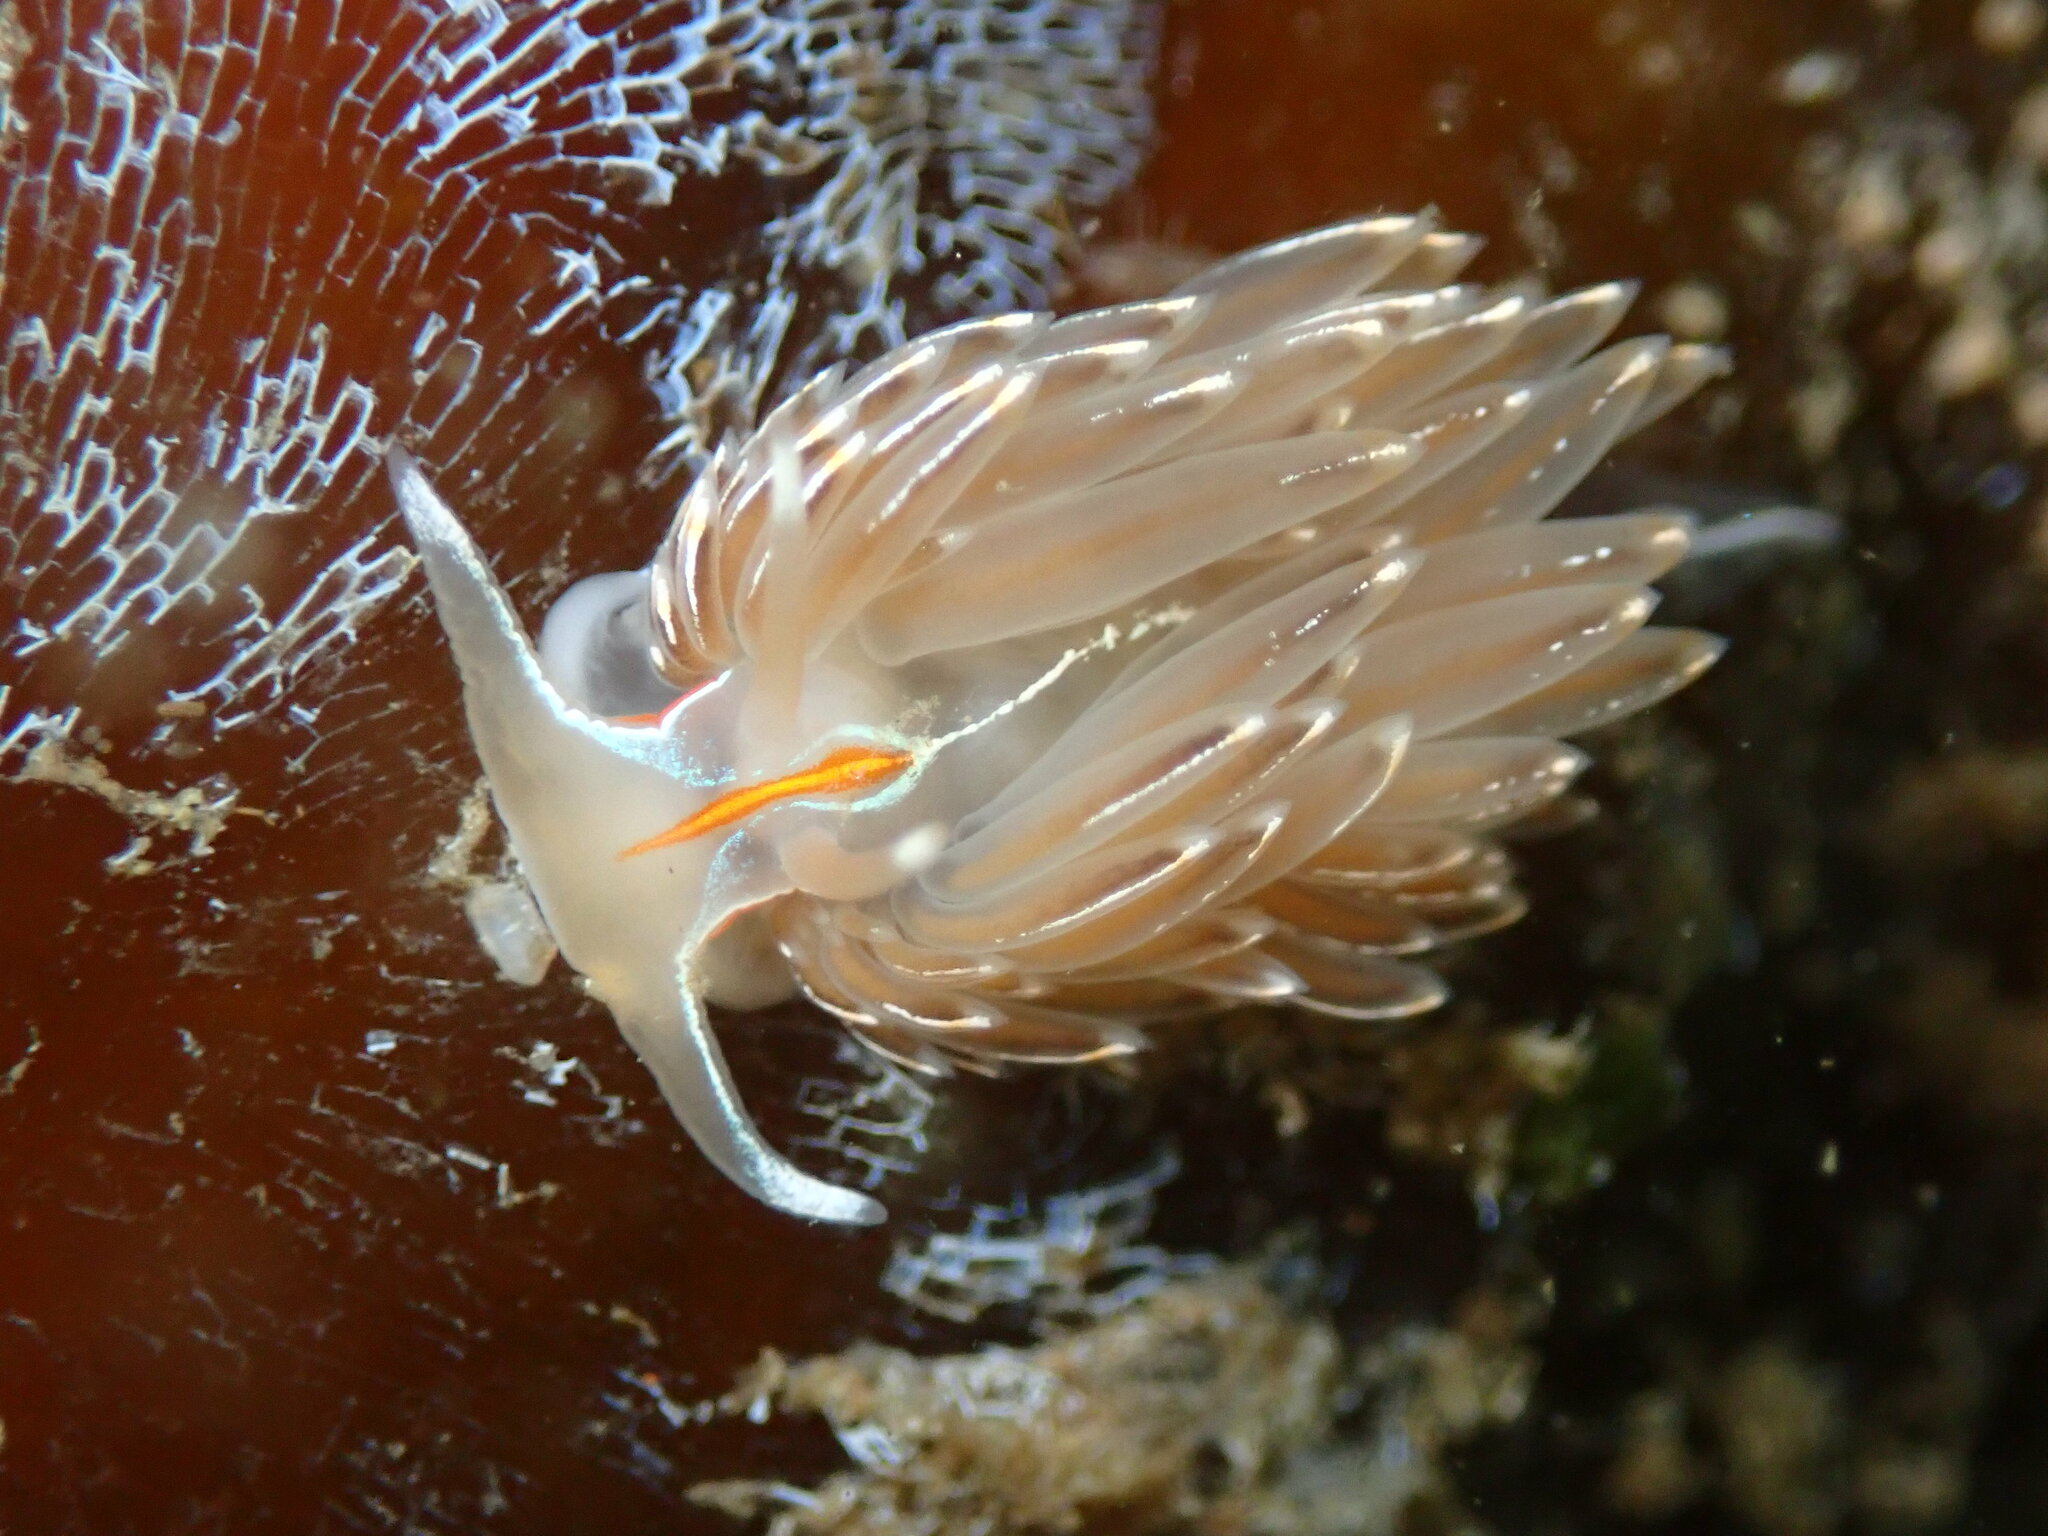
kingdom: Animalia
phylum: Mollusca
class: Gastropoda
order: Nudibranchia
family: Myrrhinidae
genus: Hermissenda
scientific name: Hermissenda crassicornis
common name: Hermissenda
